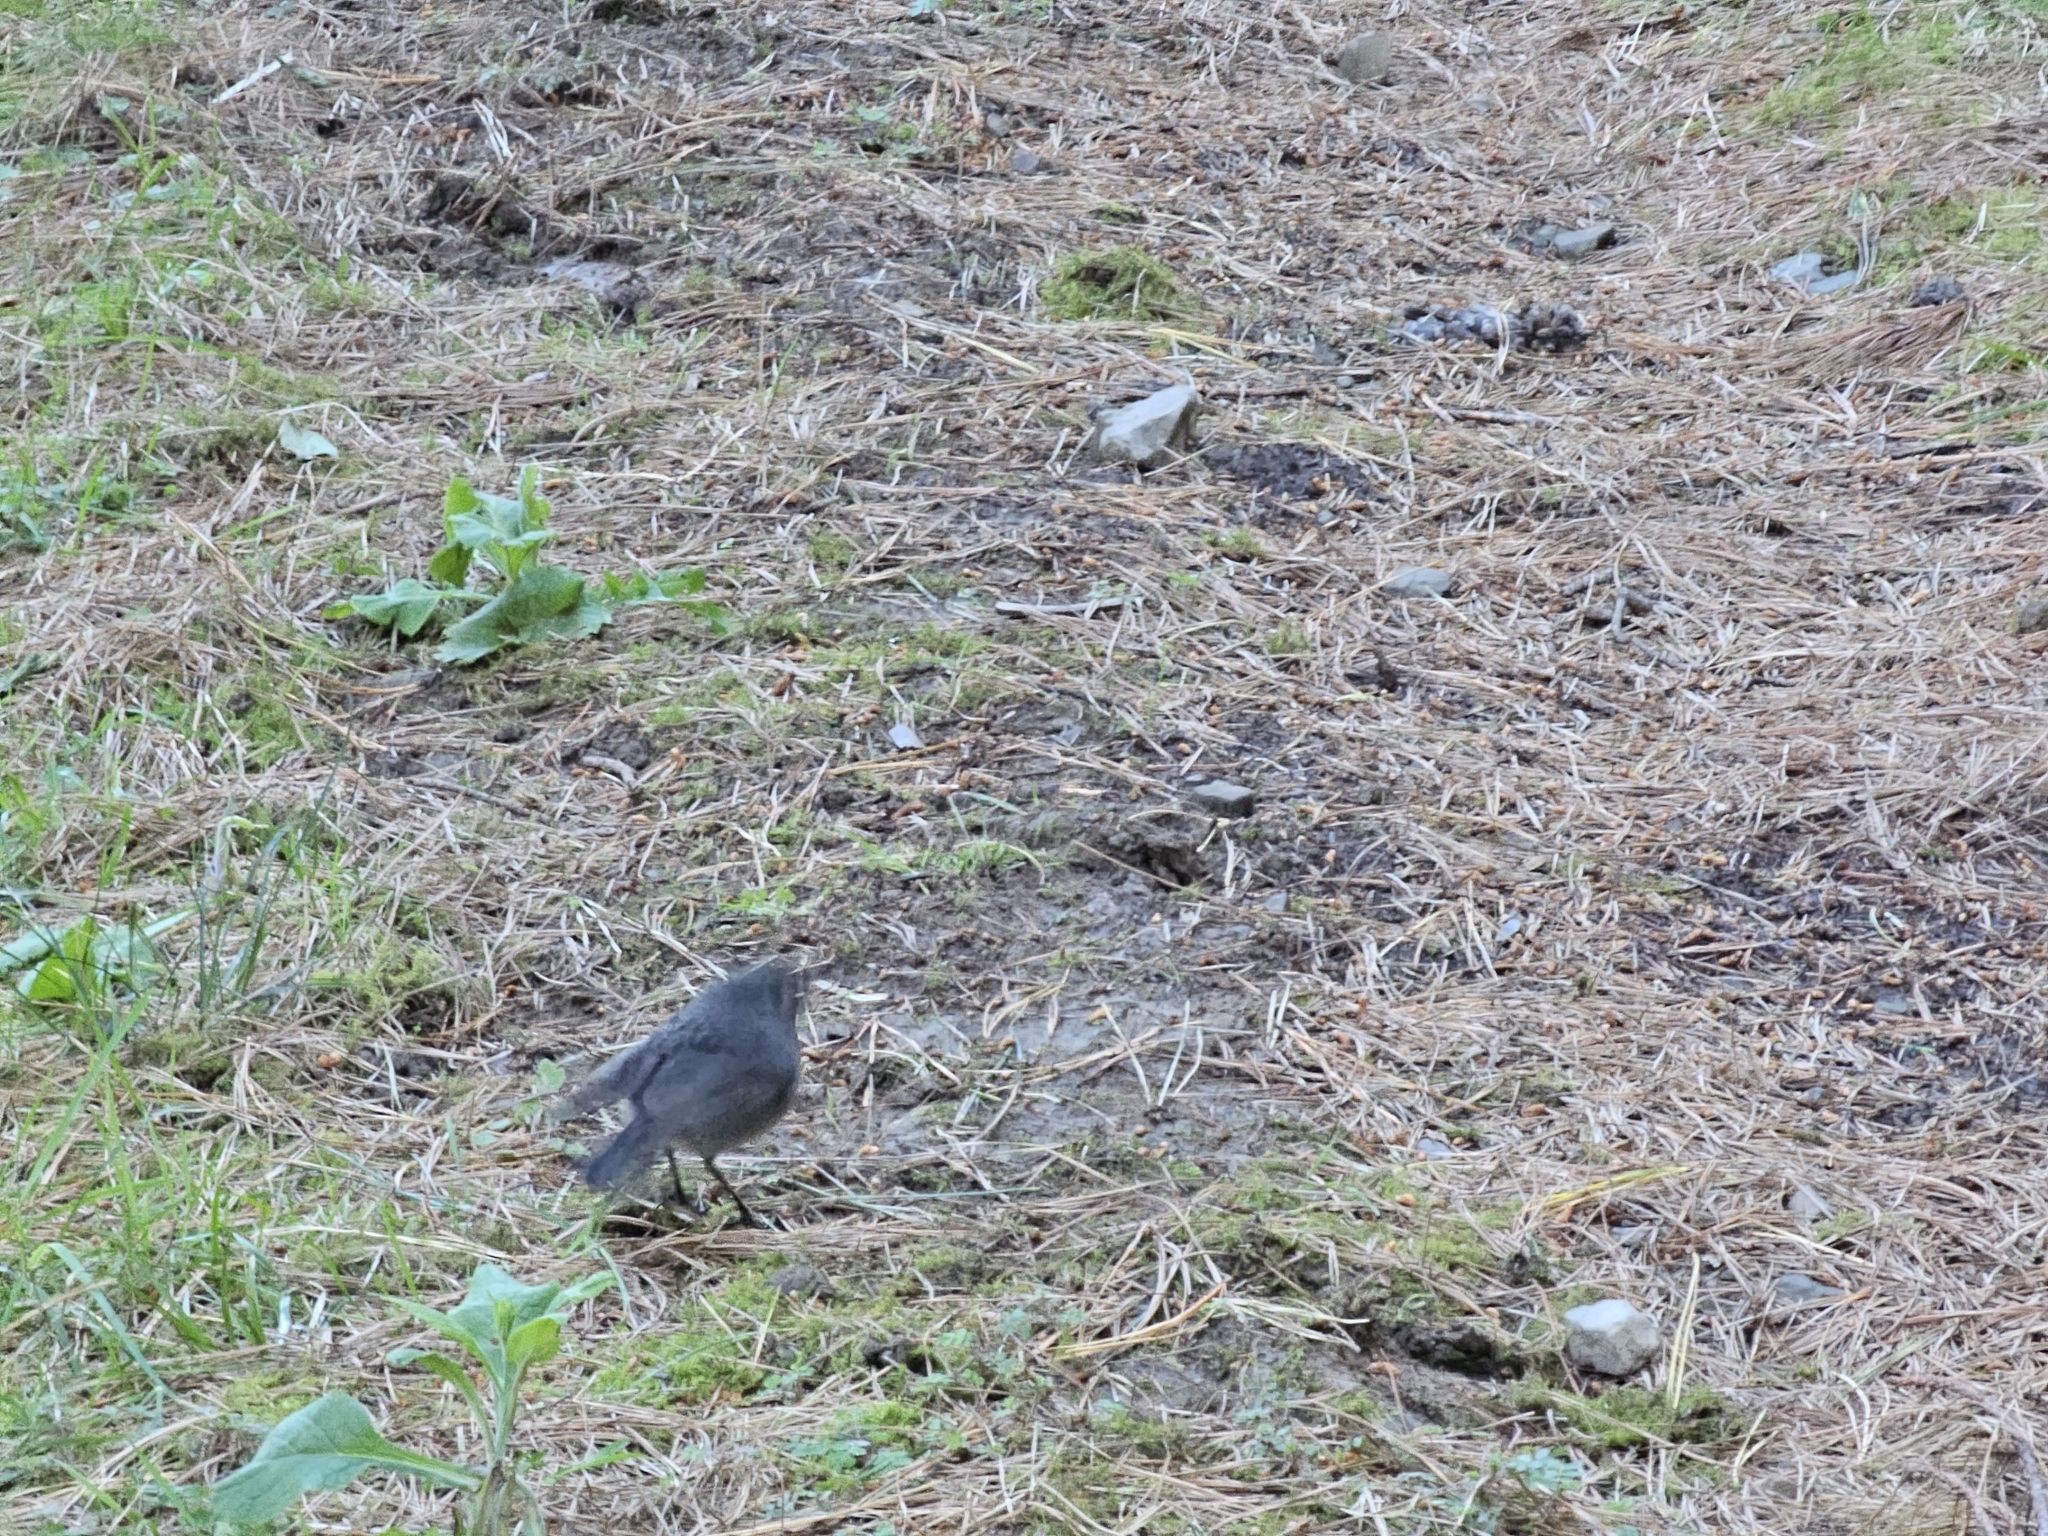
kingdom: Animalia
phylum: Chordata
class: Aves
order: Passeriformes
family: Petroicidae
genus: Petroica
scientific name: Petroica australis
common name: New zealand robin
